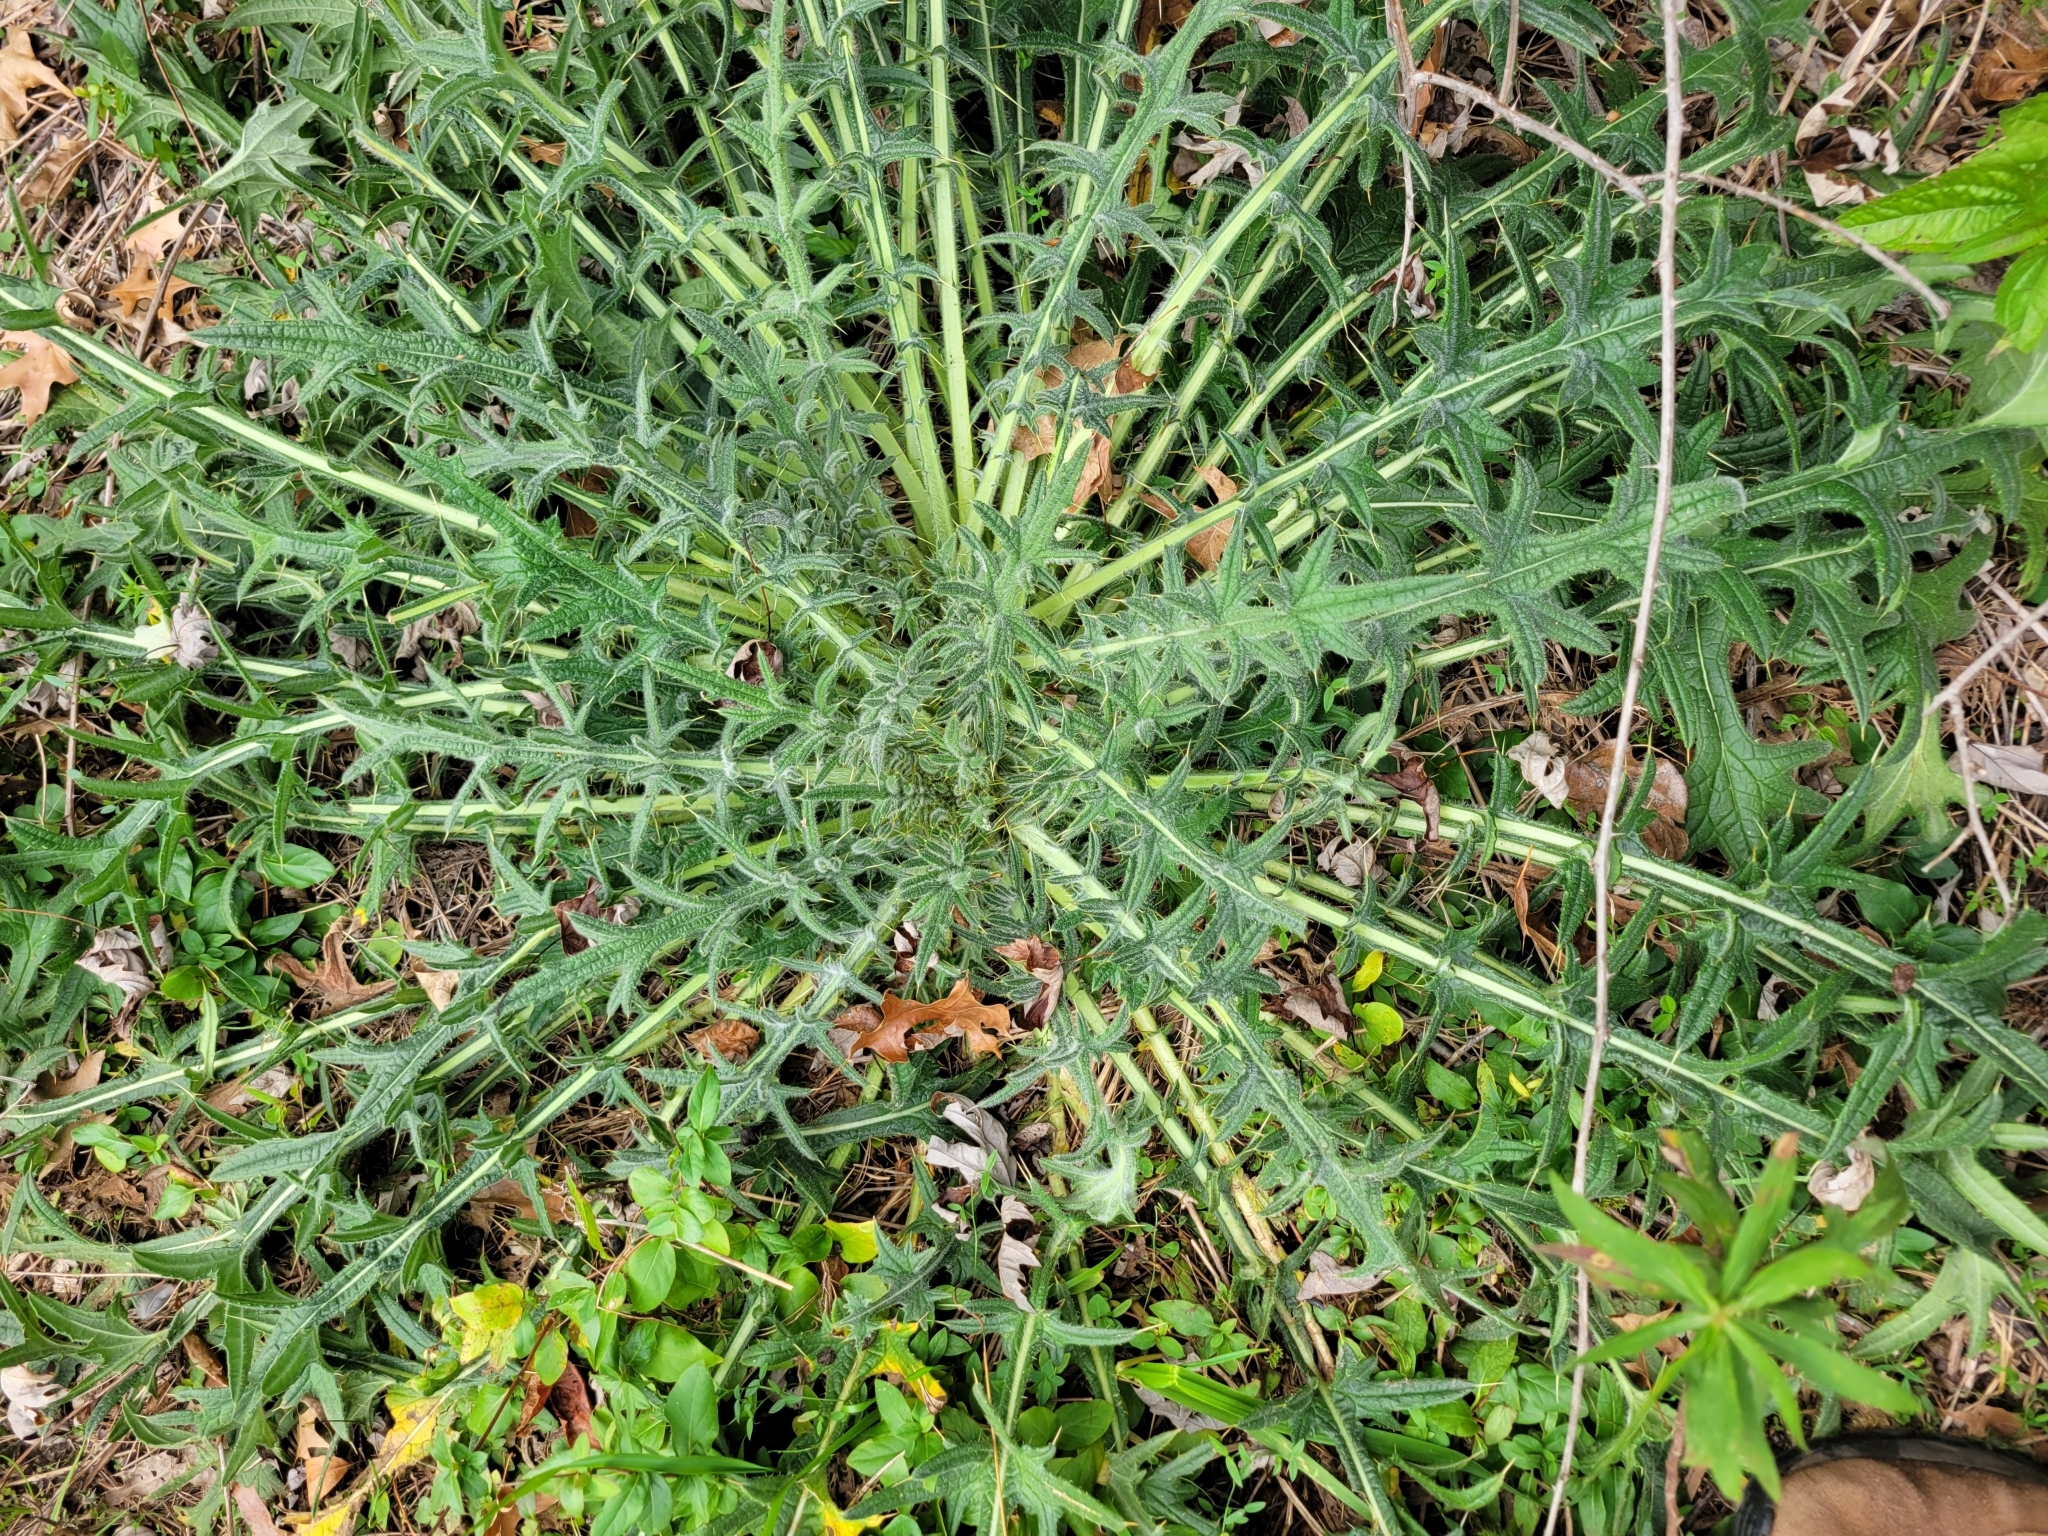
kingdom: Plantae
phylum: Tracheophyta
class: Magnoliopsida
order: Asterales
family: Asteraceae
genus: Cirsium
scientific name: Cirsium vulgare
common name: Bull thistle
